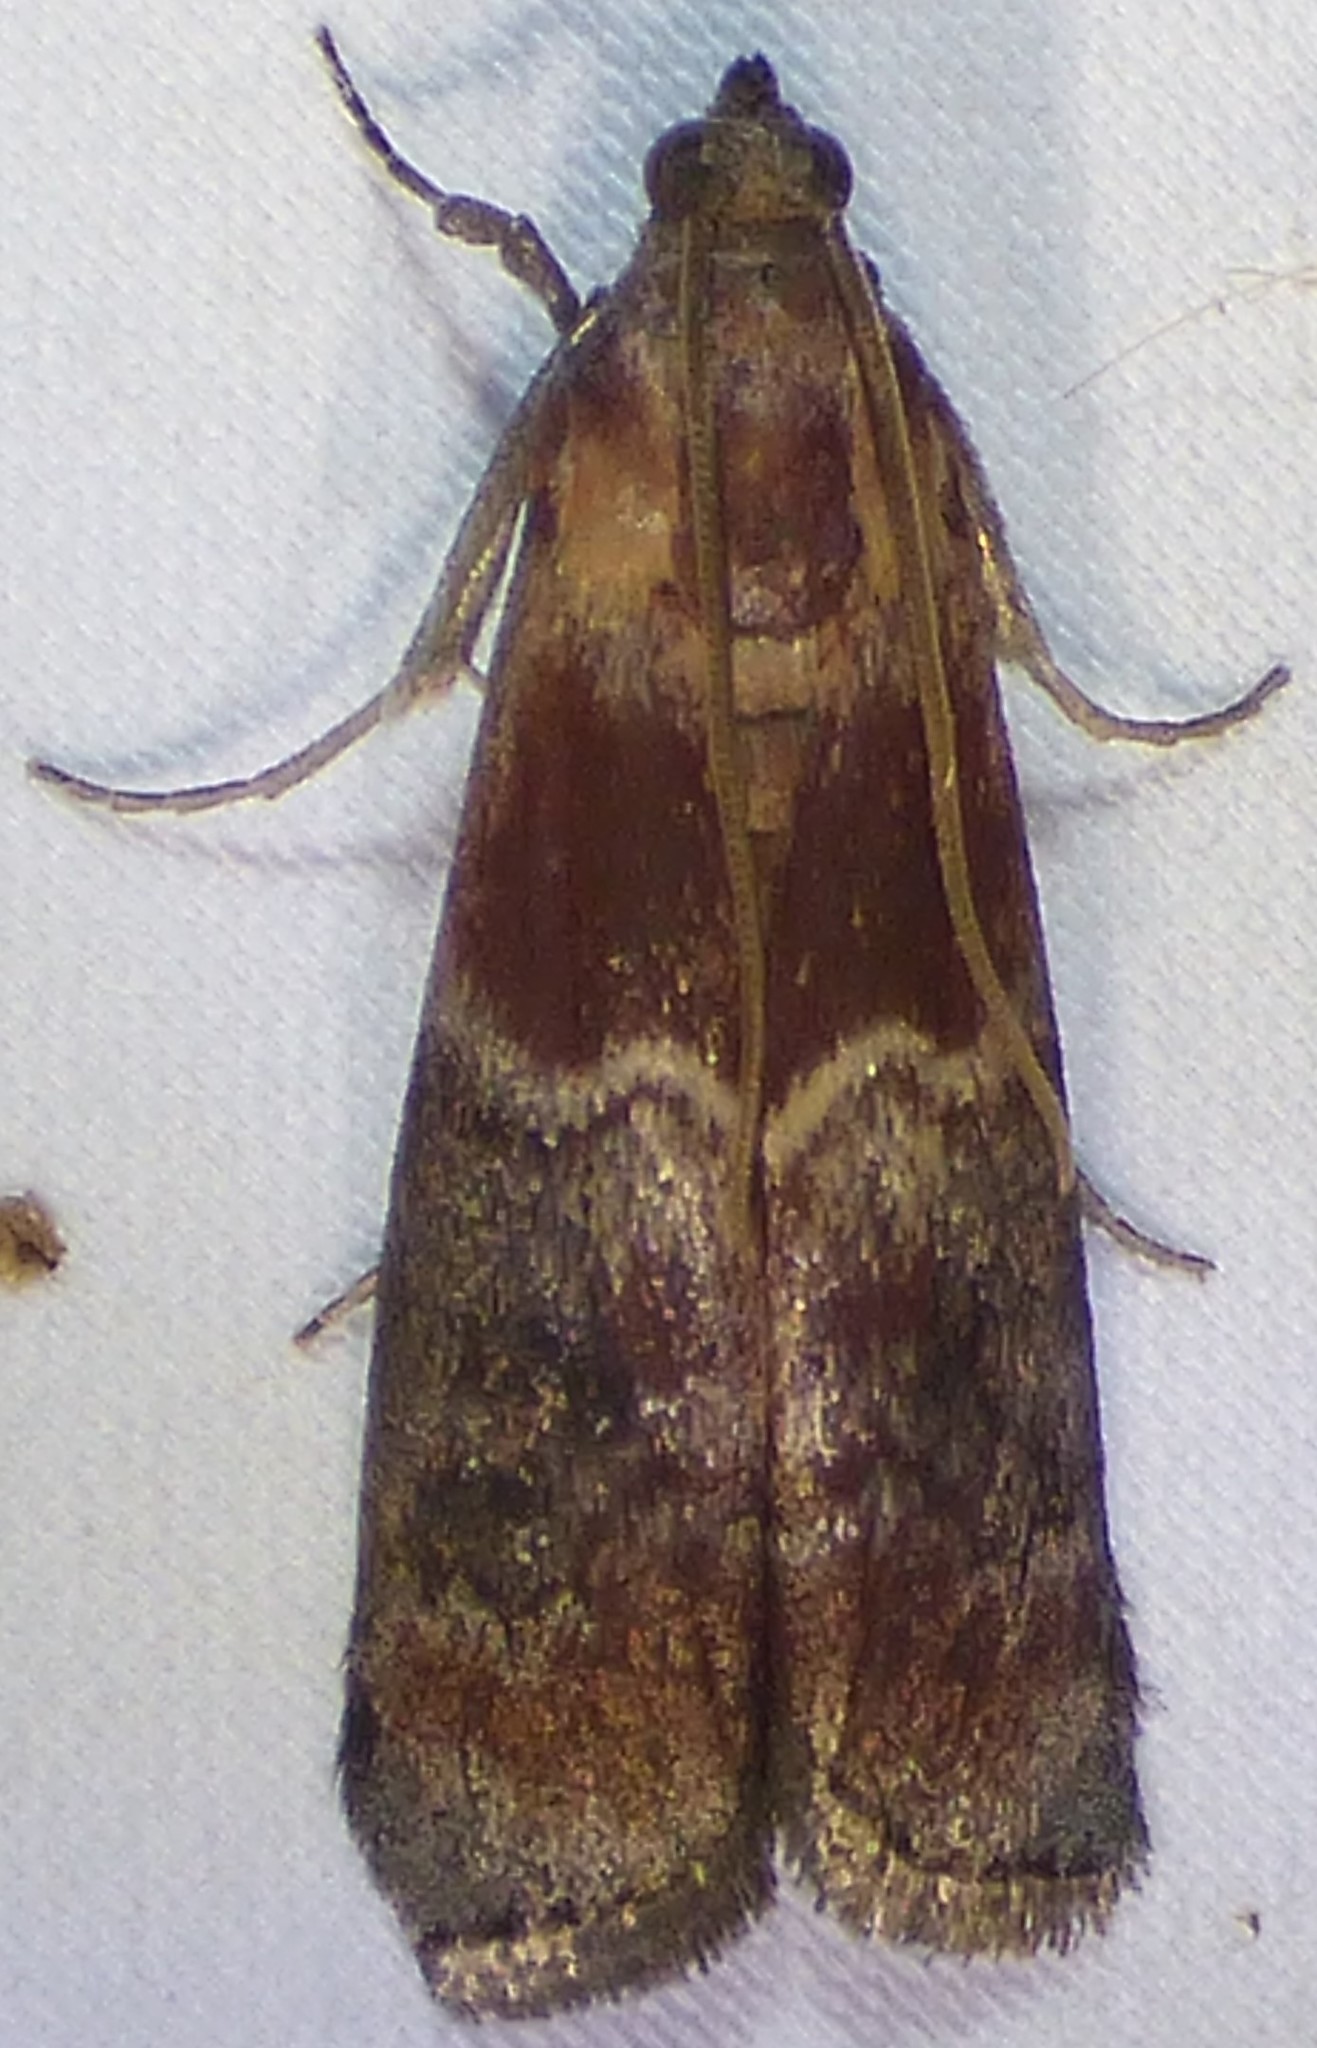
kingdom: Animalia
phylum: Arthropoda
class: Insecta
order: Lepidoptera
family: Pyralidae
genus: Euzophera
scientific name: Euzophera ostricolorella
